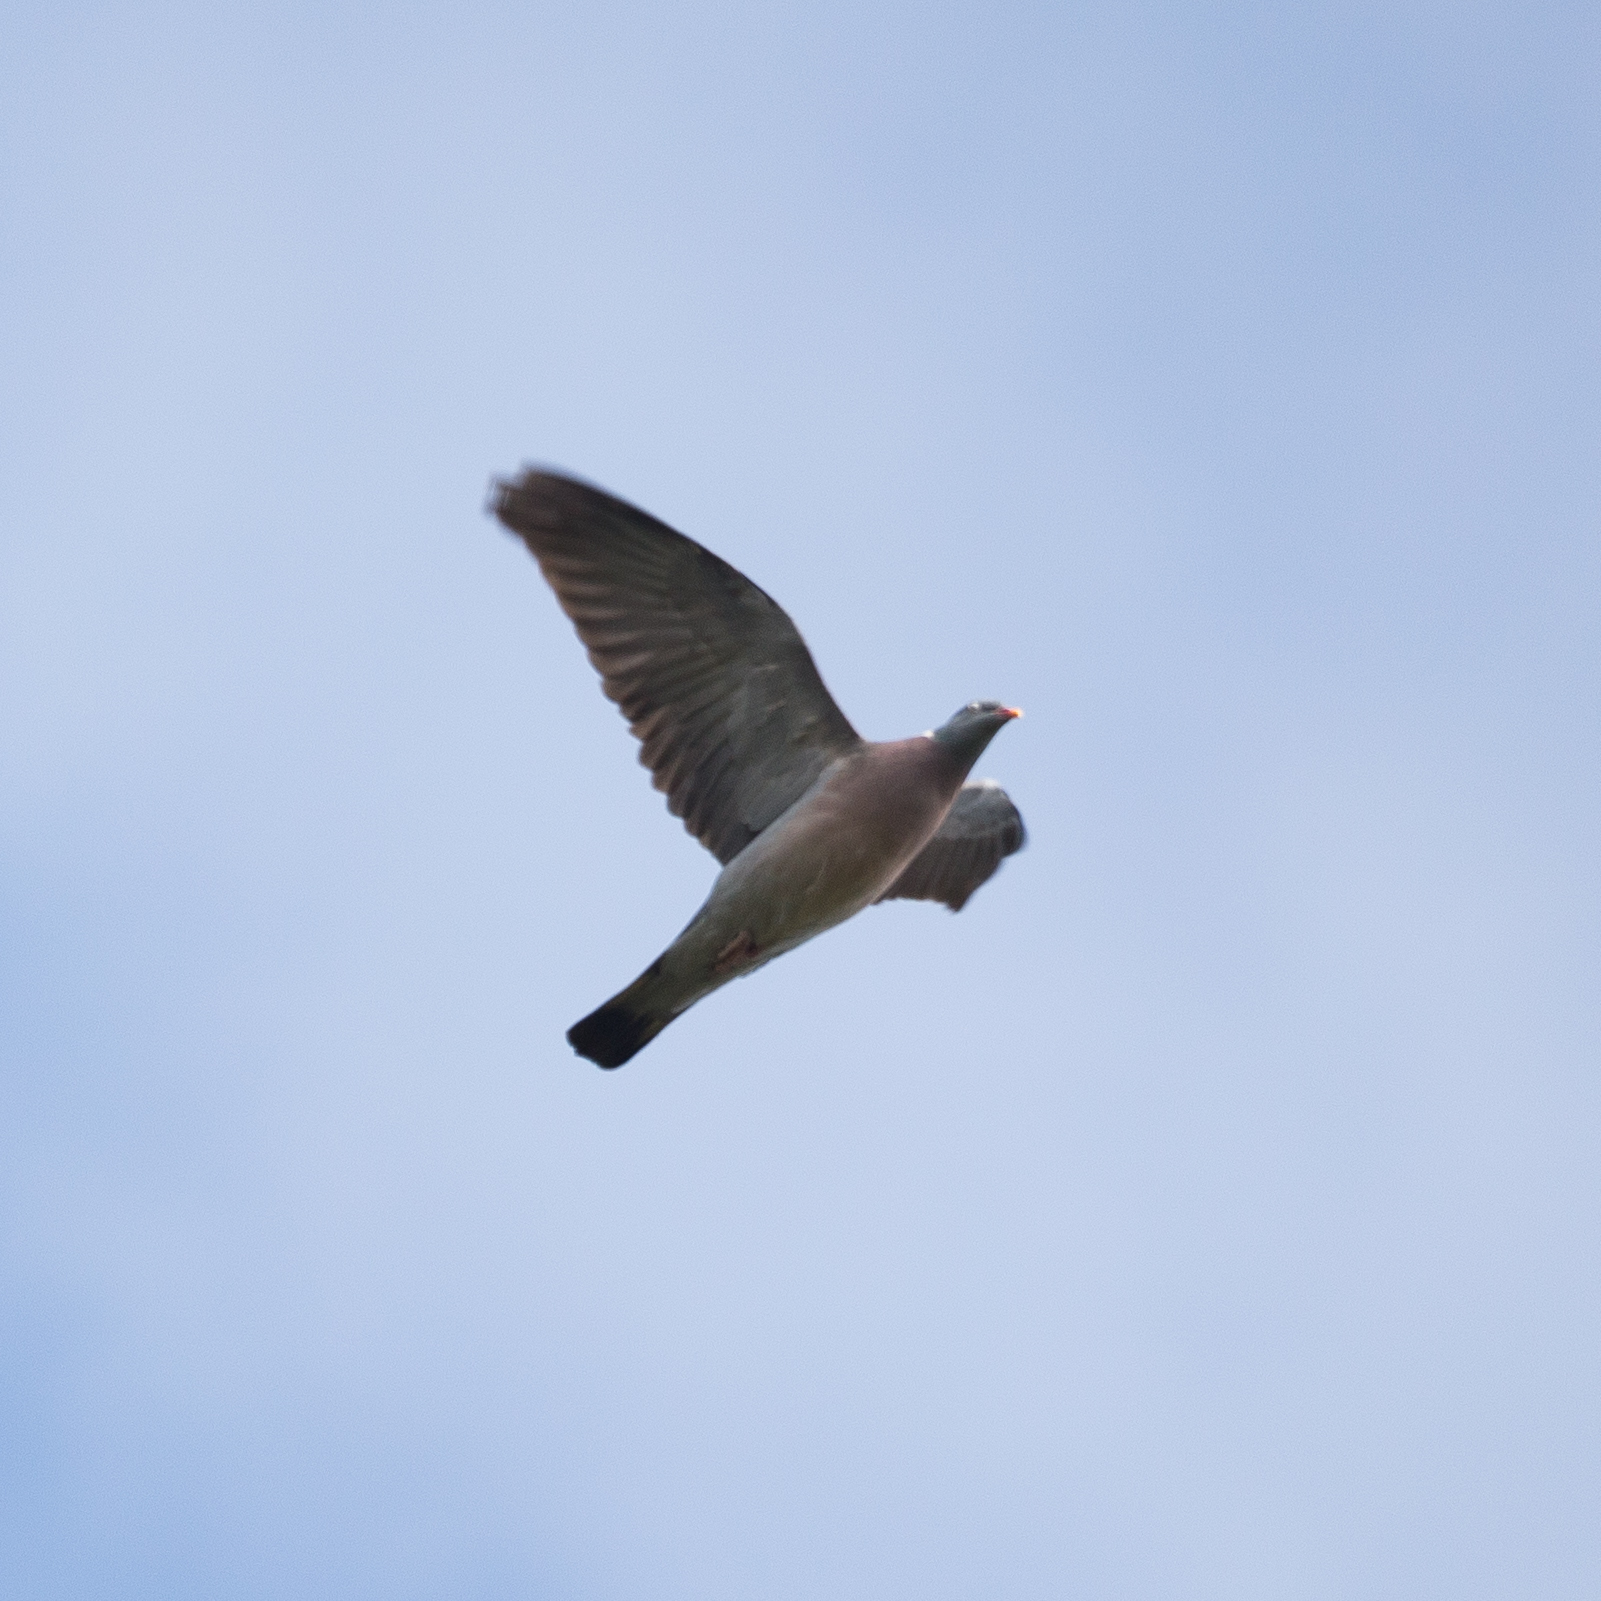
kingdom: Animalia
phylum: Chordata
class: Aves
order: Columbiformes
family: Columbidae
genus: Columba
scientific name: Columba palumbus
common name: Common wood pigeon
